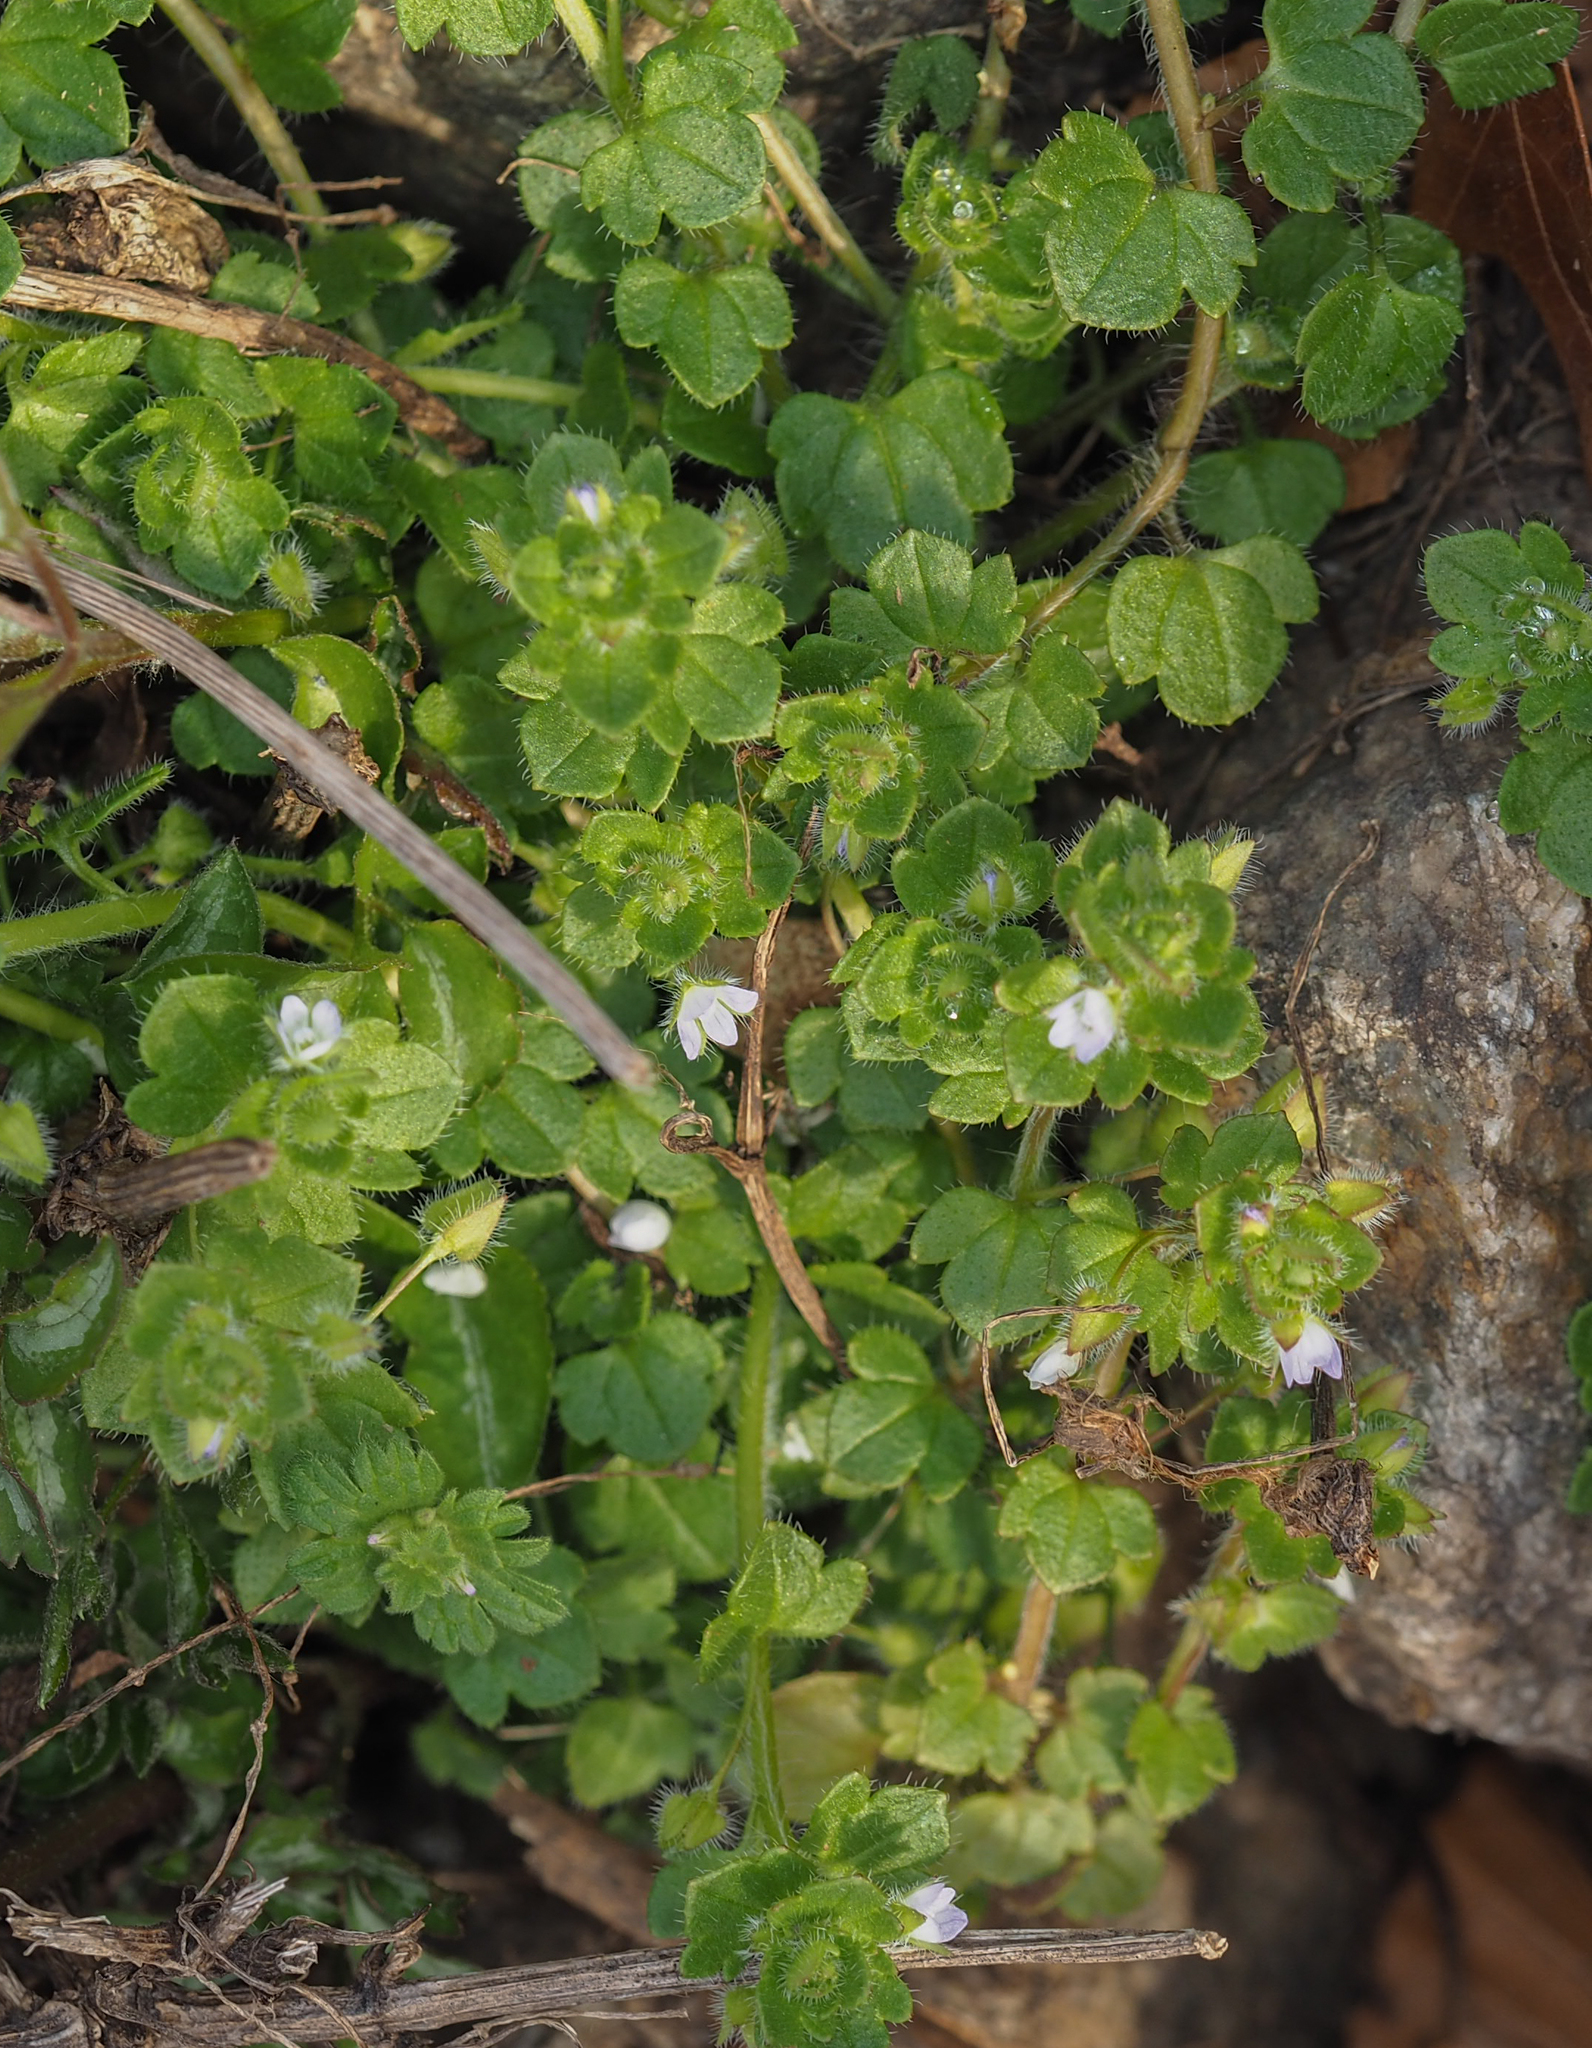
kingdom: Plantae
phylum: Tracheophyta
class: Magnoliopsida
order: Lamiales
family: Plantaginaceae
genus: Veronica
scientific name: Veronica hederifolia
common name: Ivy-leaved speedwell
